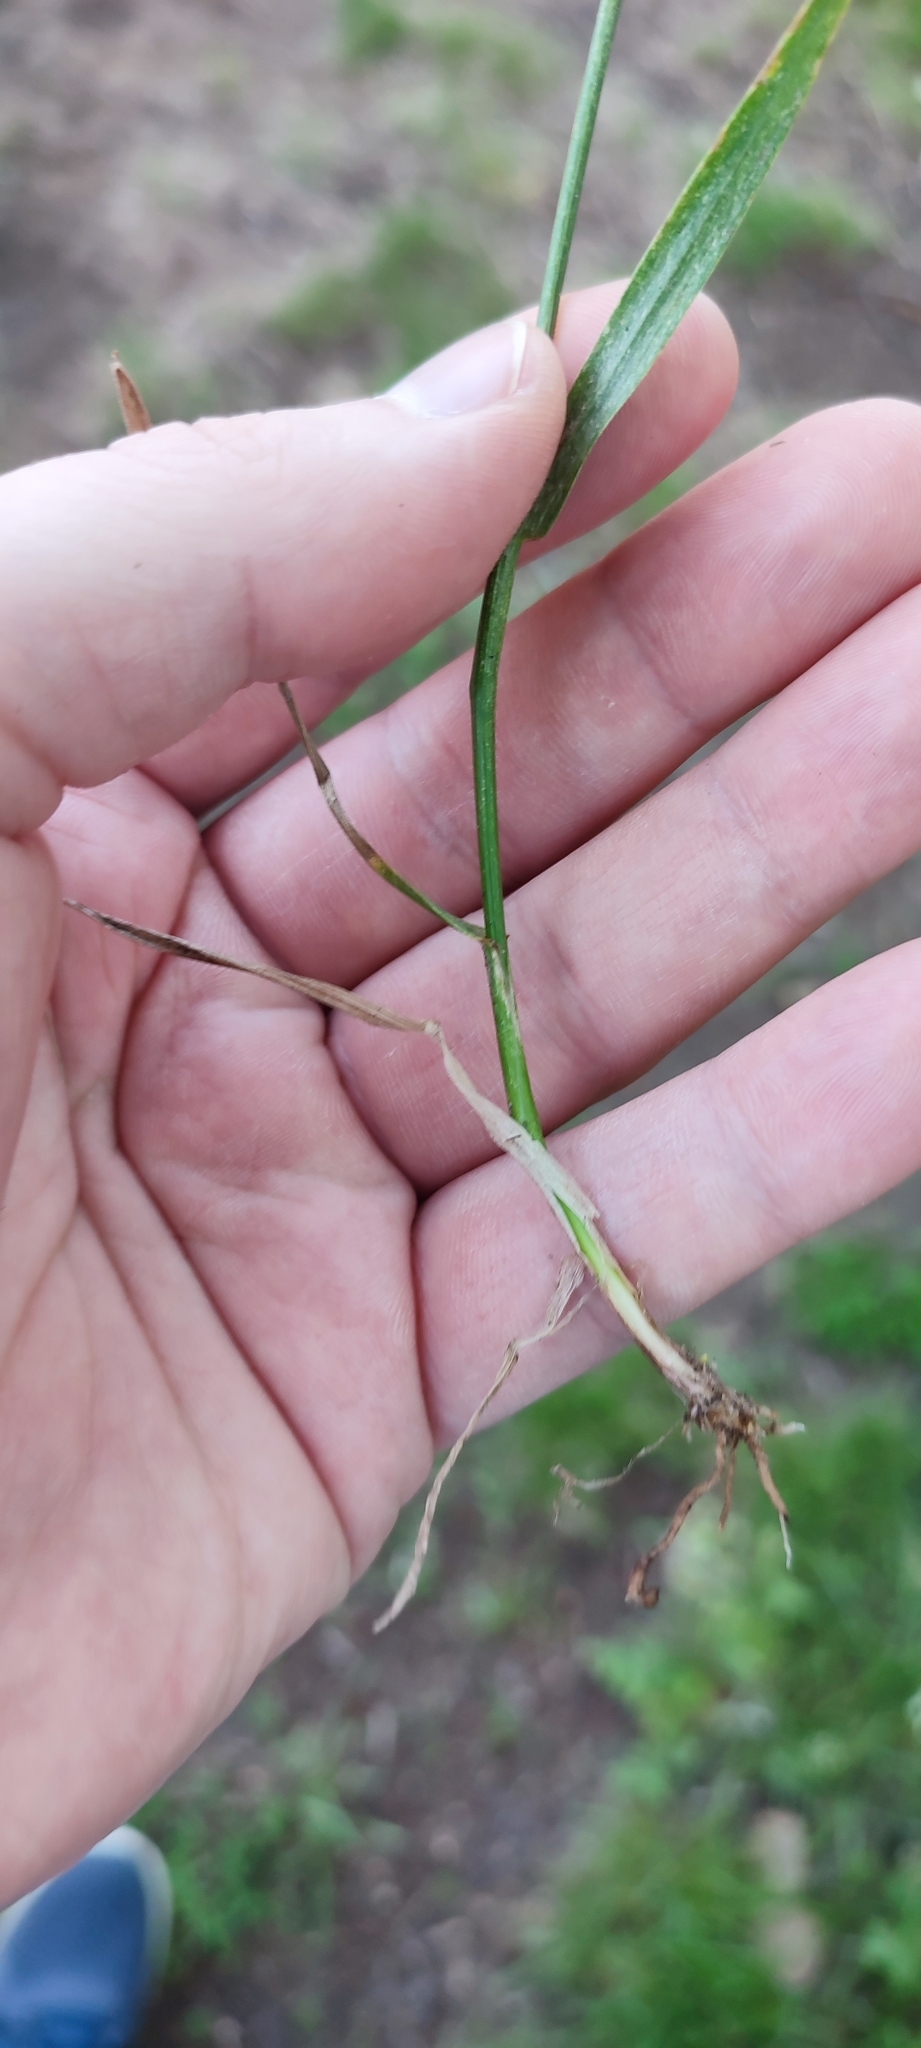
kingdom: Plantae
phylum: Tracheophyta
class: Liliopsida
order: Poales
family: Poaceae
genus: Lolium
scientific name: Lolium pratense
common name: Dover grass
